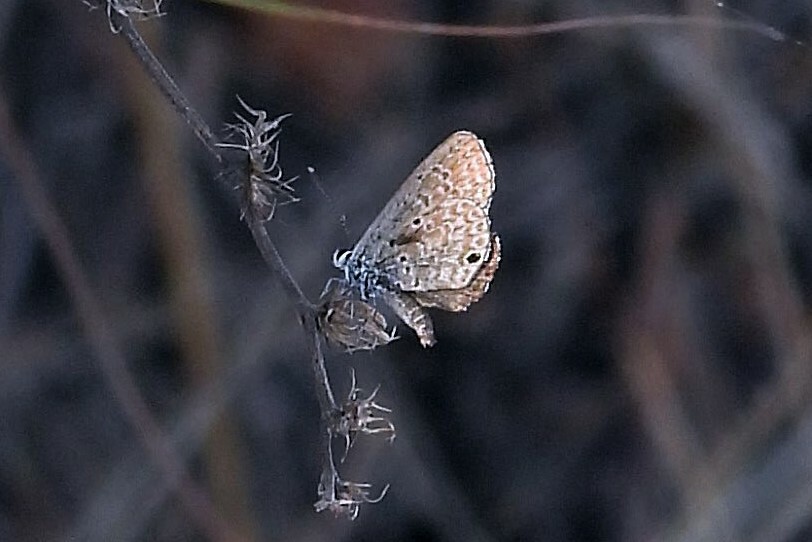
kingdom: Animalia
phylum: Arthropoda
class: Insecta
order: Lepidoptera
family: Lycaenidae
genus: Hemiargus
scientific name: Hemiargus hanno
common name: Common blue
